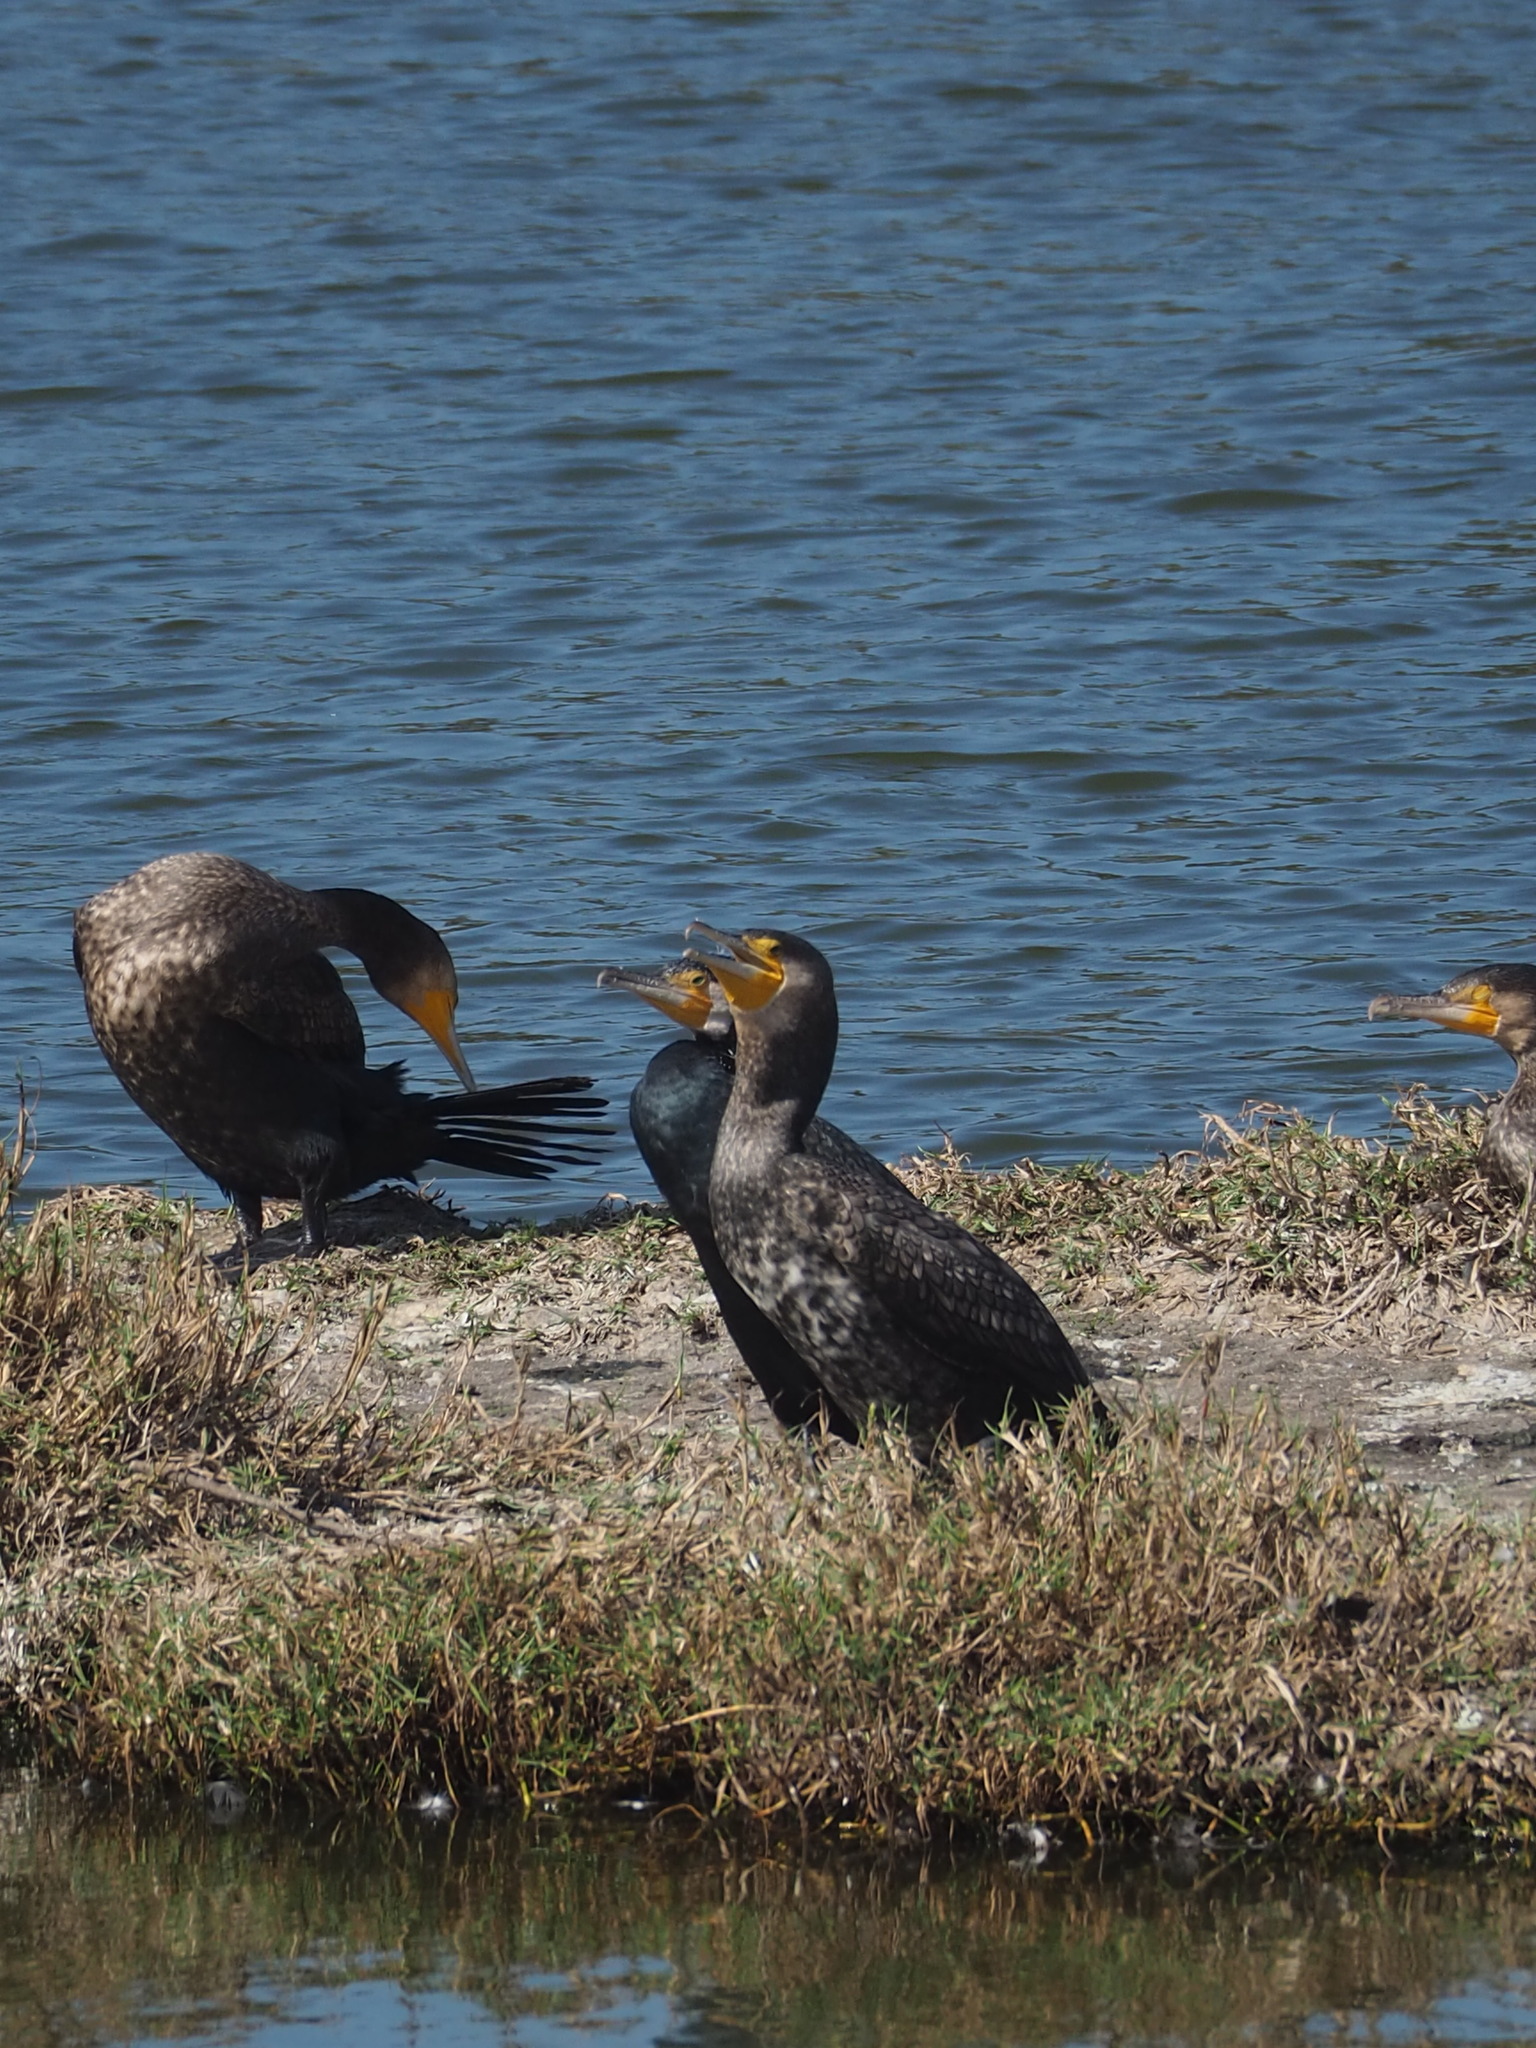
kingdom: Animalia
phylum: Chordata
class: Aves
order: Suliformes
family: Phalacrocoracidae
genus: Phalacrocorax
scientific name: Phalacrocorax carbo
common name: Great cormorant
